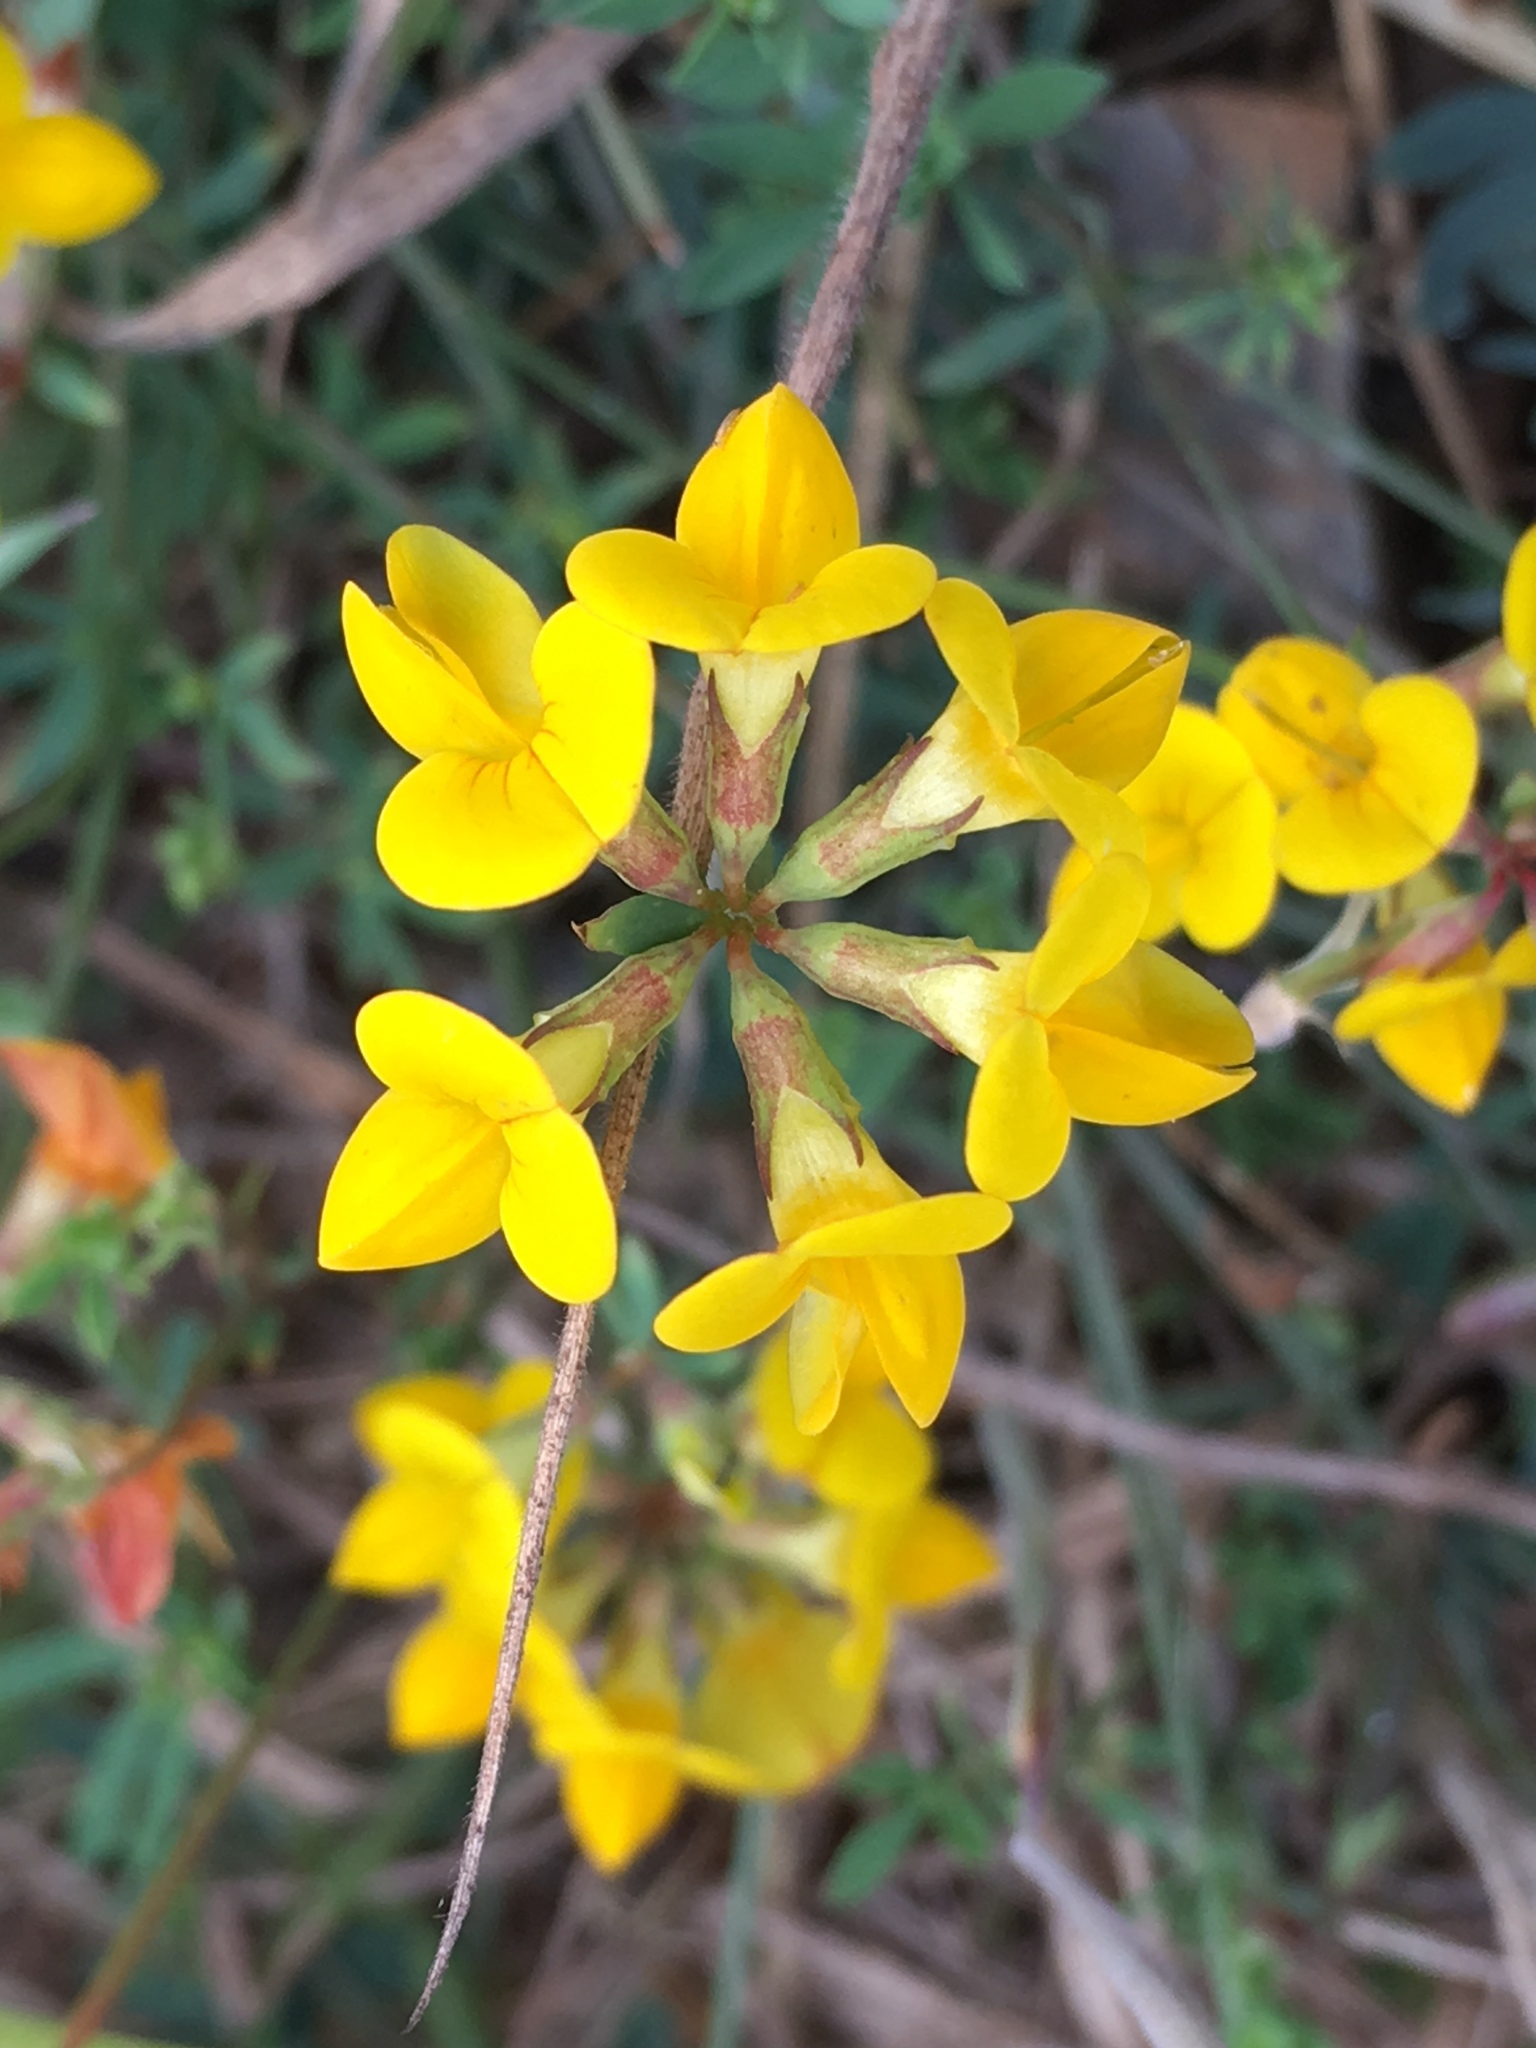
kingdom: Plantae
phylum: Tracheophyta
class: Magnoliopsida
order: Fabales
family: Fabaceae
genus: Lotus
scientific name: Lotus corniculatus
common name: Common bird's-foot-trefoil
